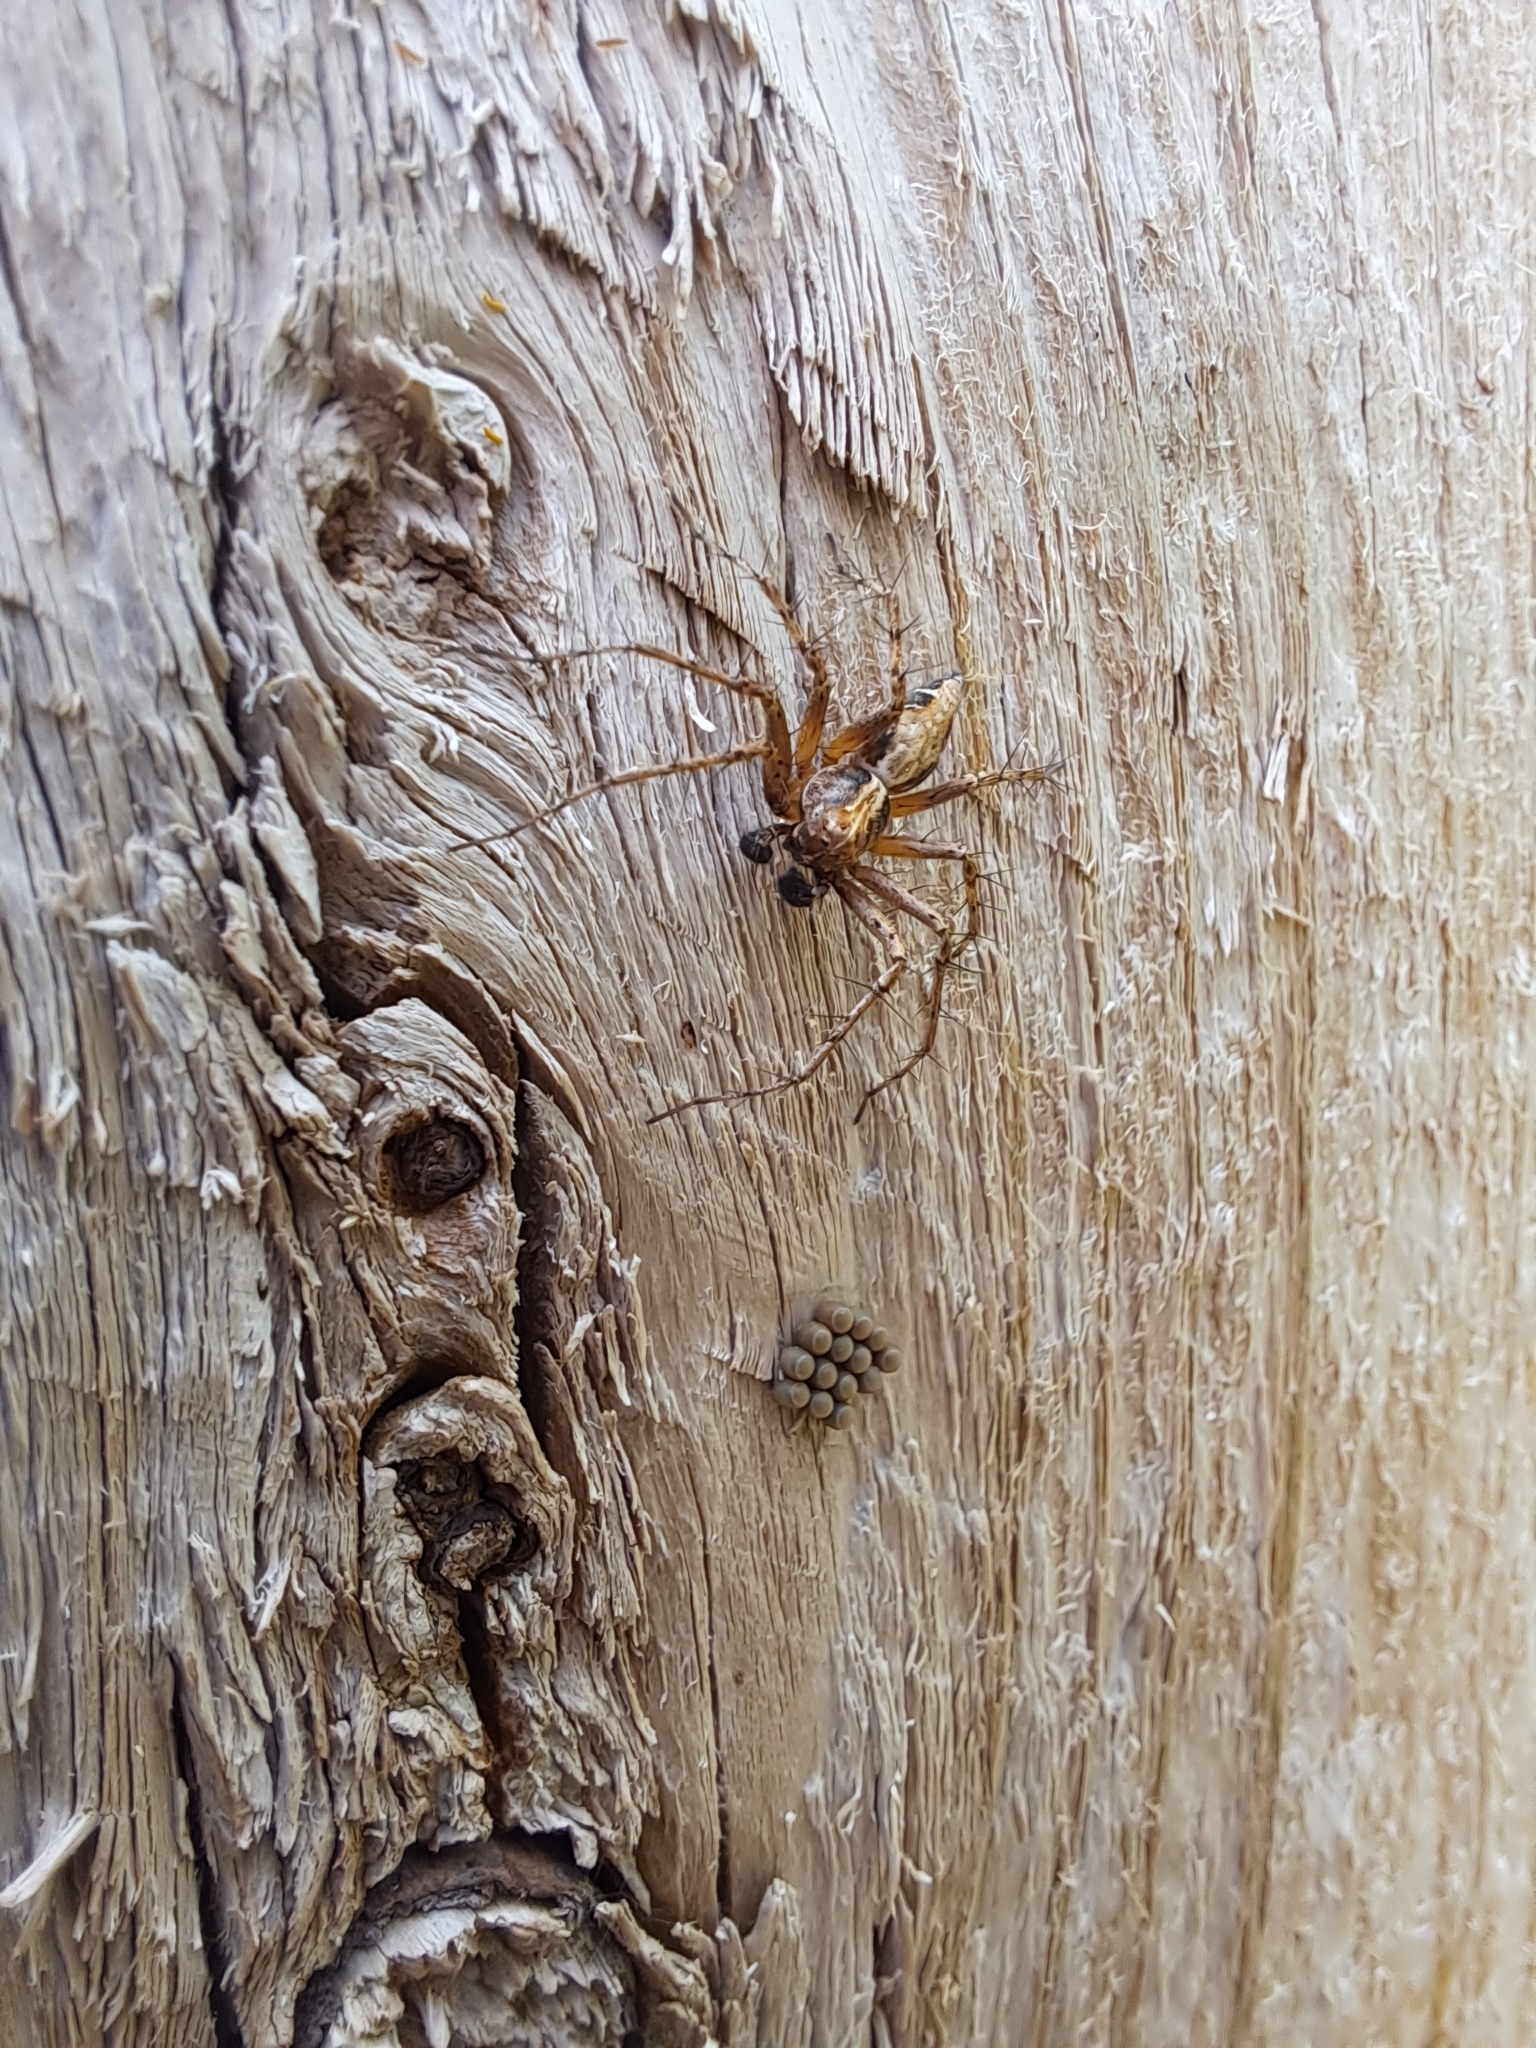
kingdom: Animalia
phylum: Arthropoda
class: Arachnida
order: Araneae
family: Oxyopidae
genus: Oxyopes
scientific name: Oxyopes scalaris
